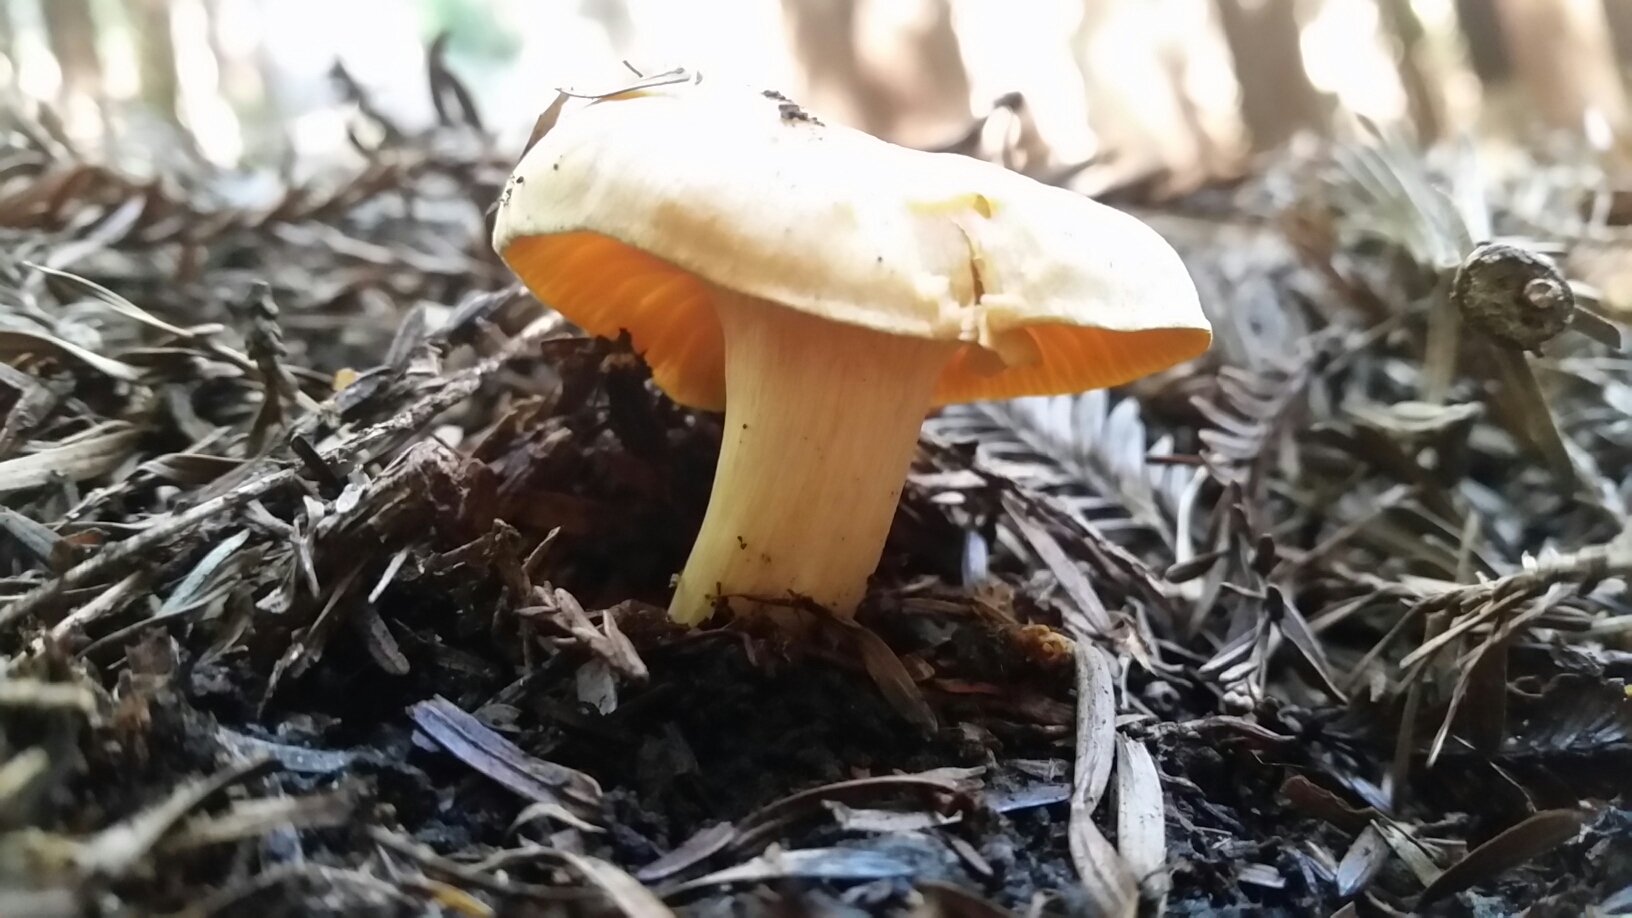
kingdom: Fungi
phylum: Basidiomycota
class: Agaricomycetes
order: Agaricales
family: Hygrophoraceae
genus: Cuphophyllus
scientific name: Cuphophyllus pratensis
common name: Meadow waxcap
